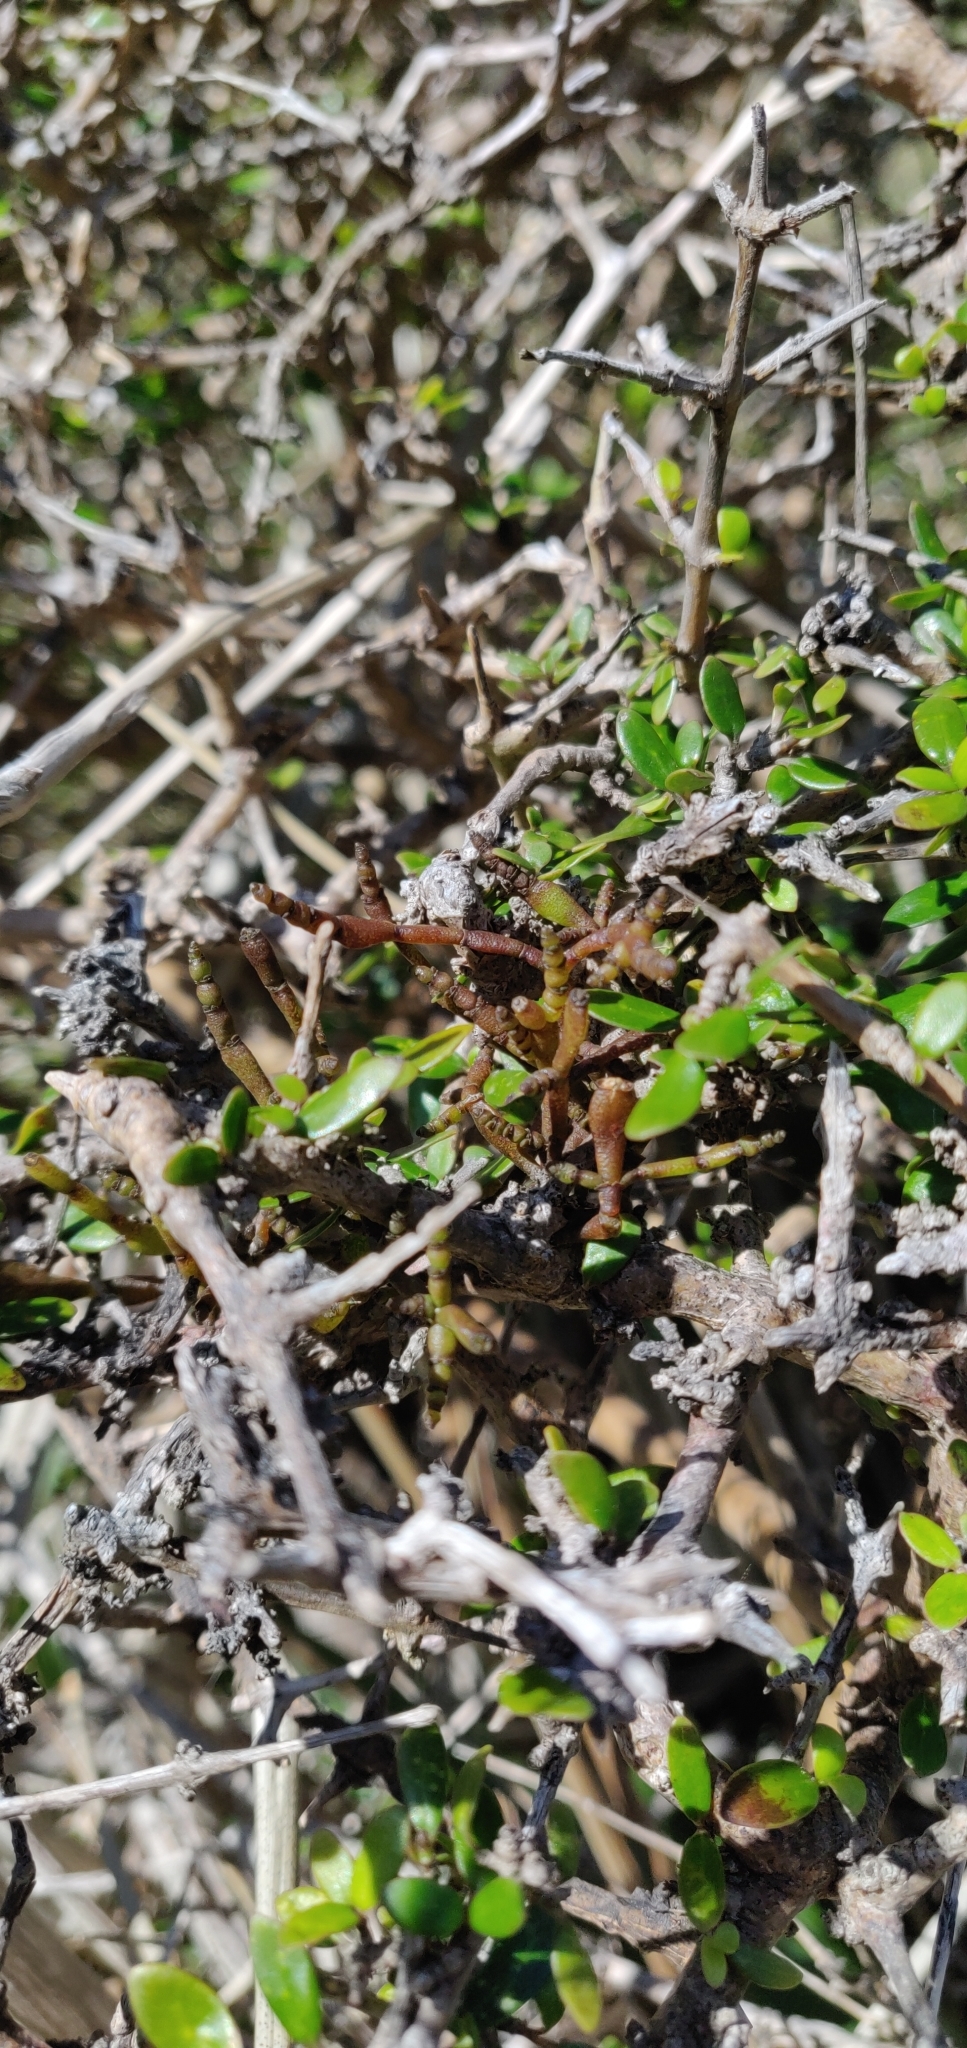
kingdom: Plantae
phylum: Tracheophyta
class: Magnoliopsida
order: Santalales
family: Viscaceae
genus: Korthalsella
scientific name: Korthalsella clavata
